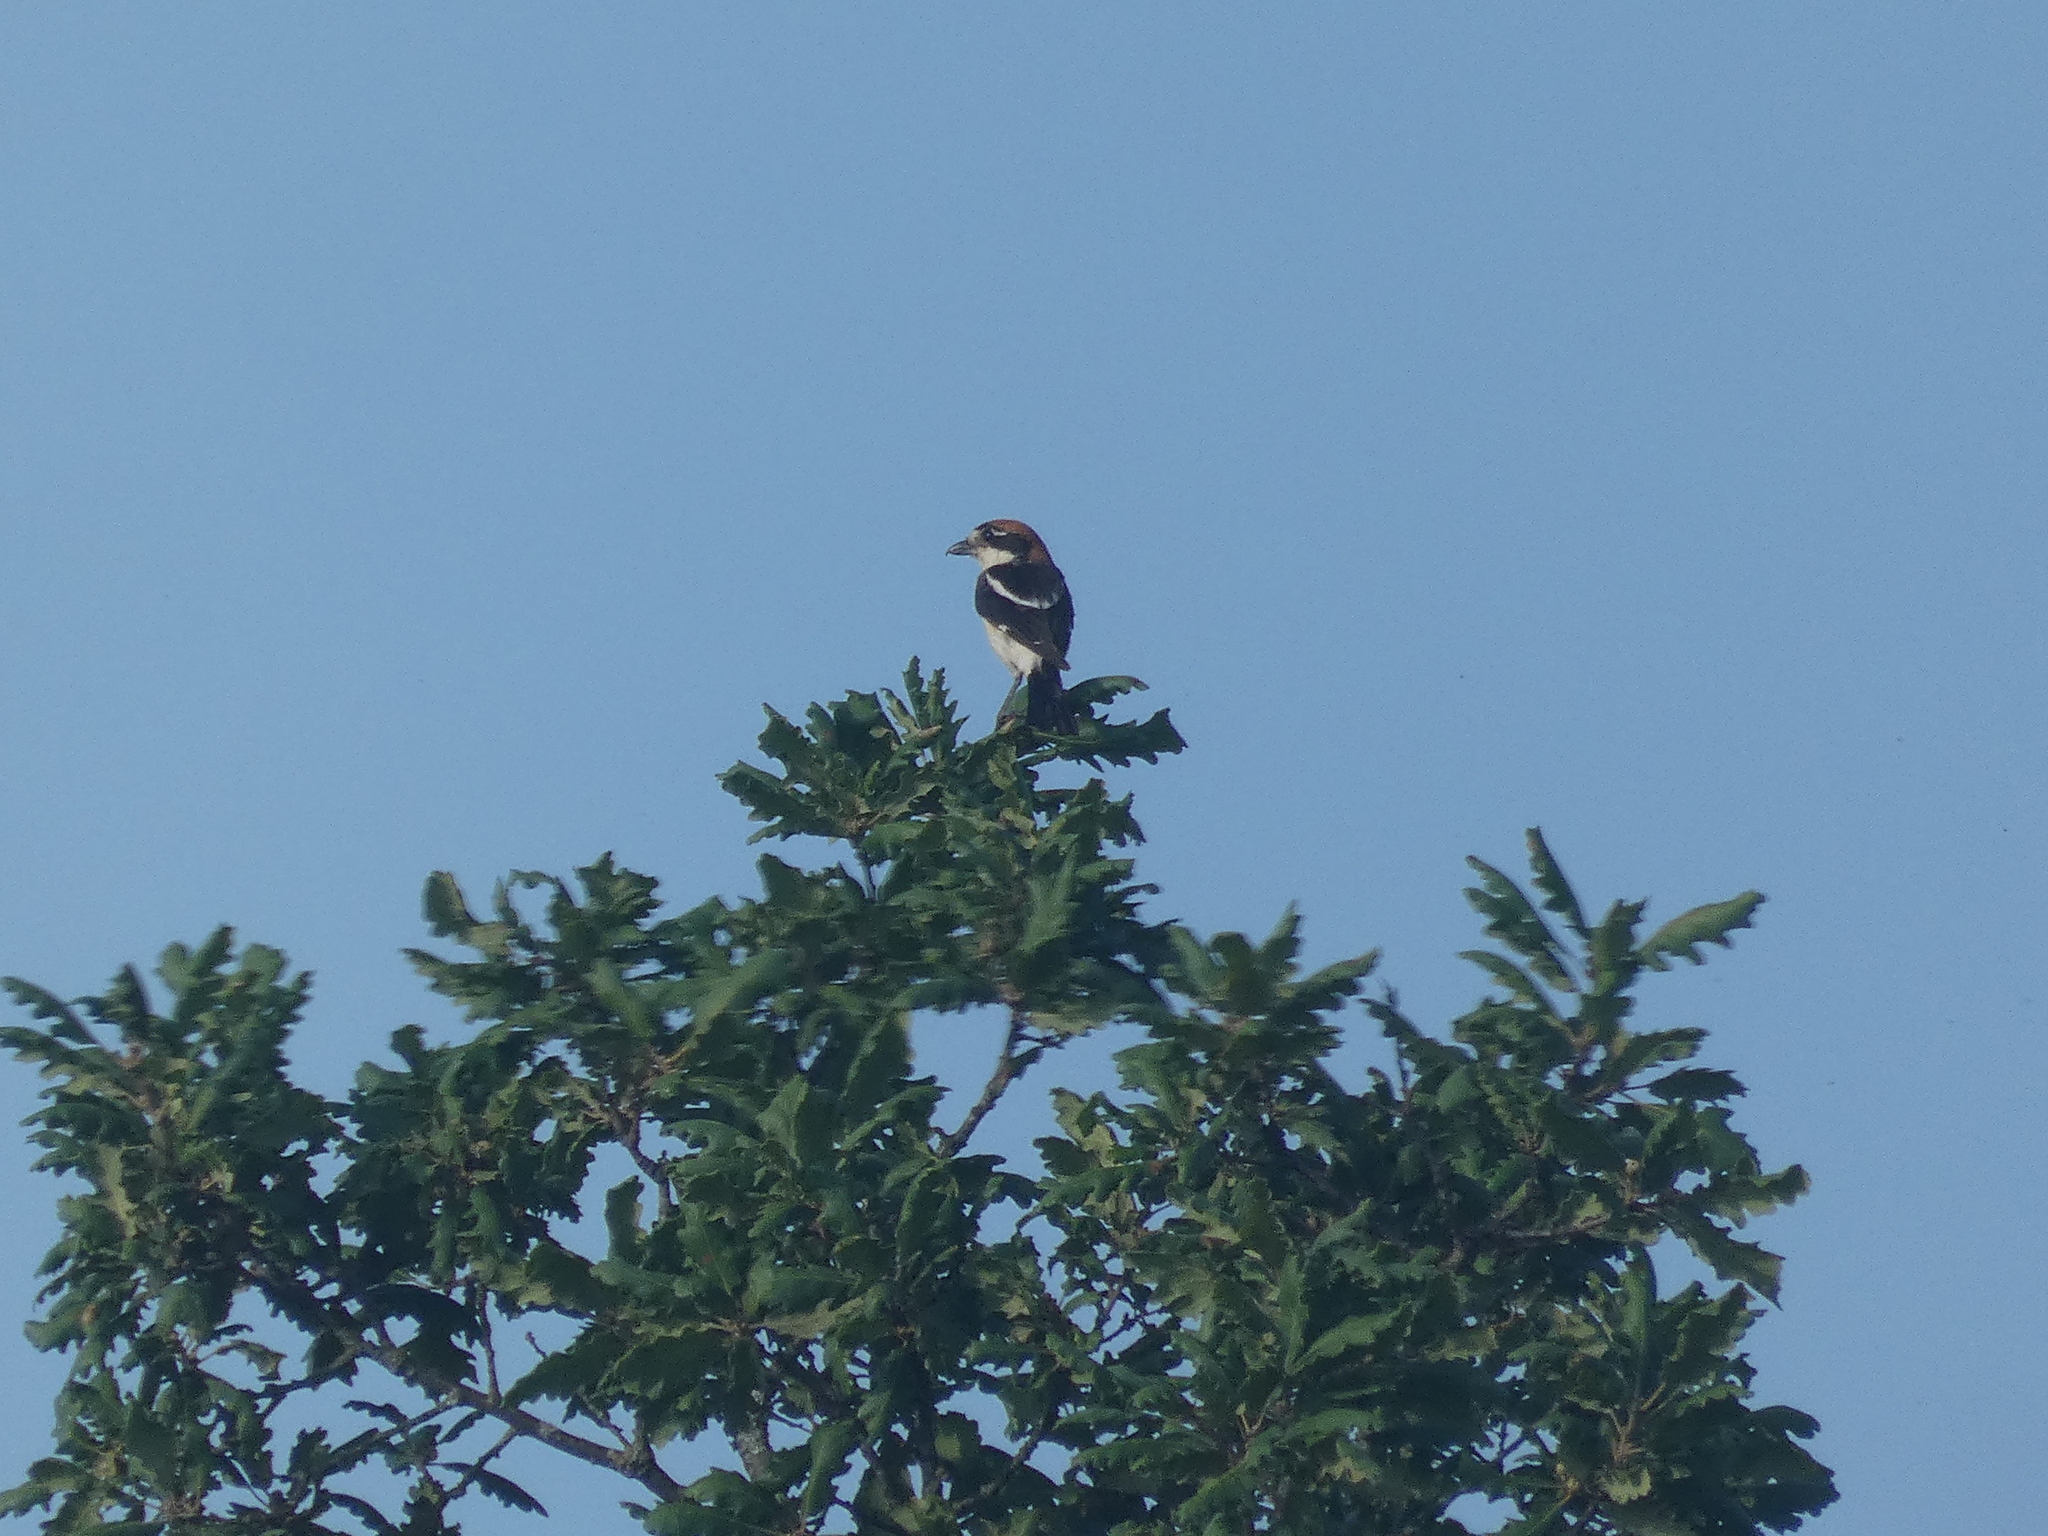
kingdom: Animalia
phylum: Chordata
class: Aves
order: Passeriformes
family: Laniidae
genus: Lanius
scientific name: Lanius senator
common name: Woodchat shrike
